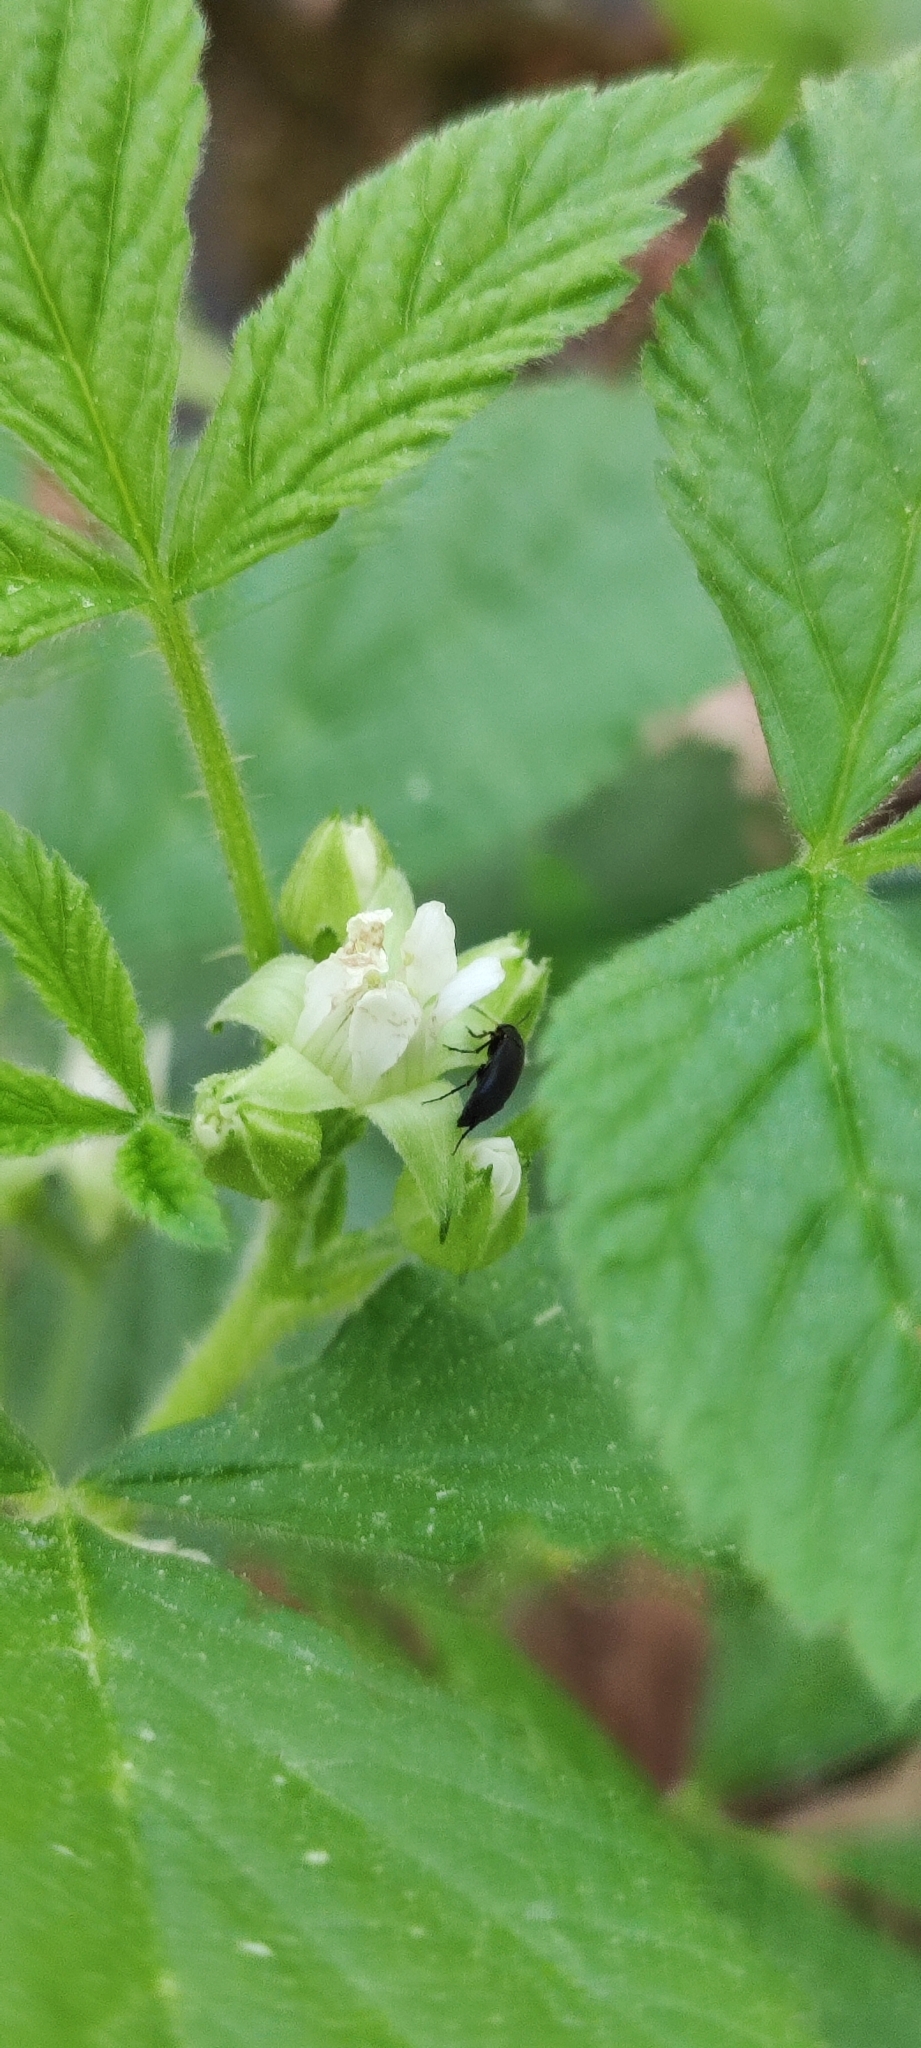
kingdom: Plantae
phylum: Tracheophyta
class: Magnoliopsida
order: Rosales
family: Rosaceae
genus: Rubus
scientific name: Rubus saxatilis
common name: Stone bramble
